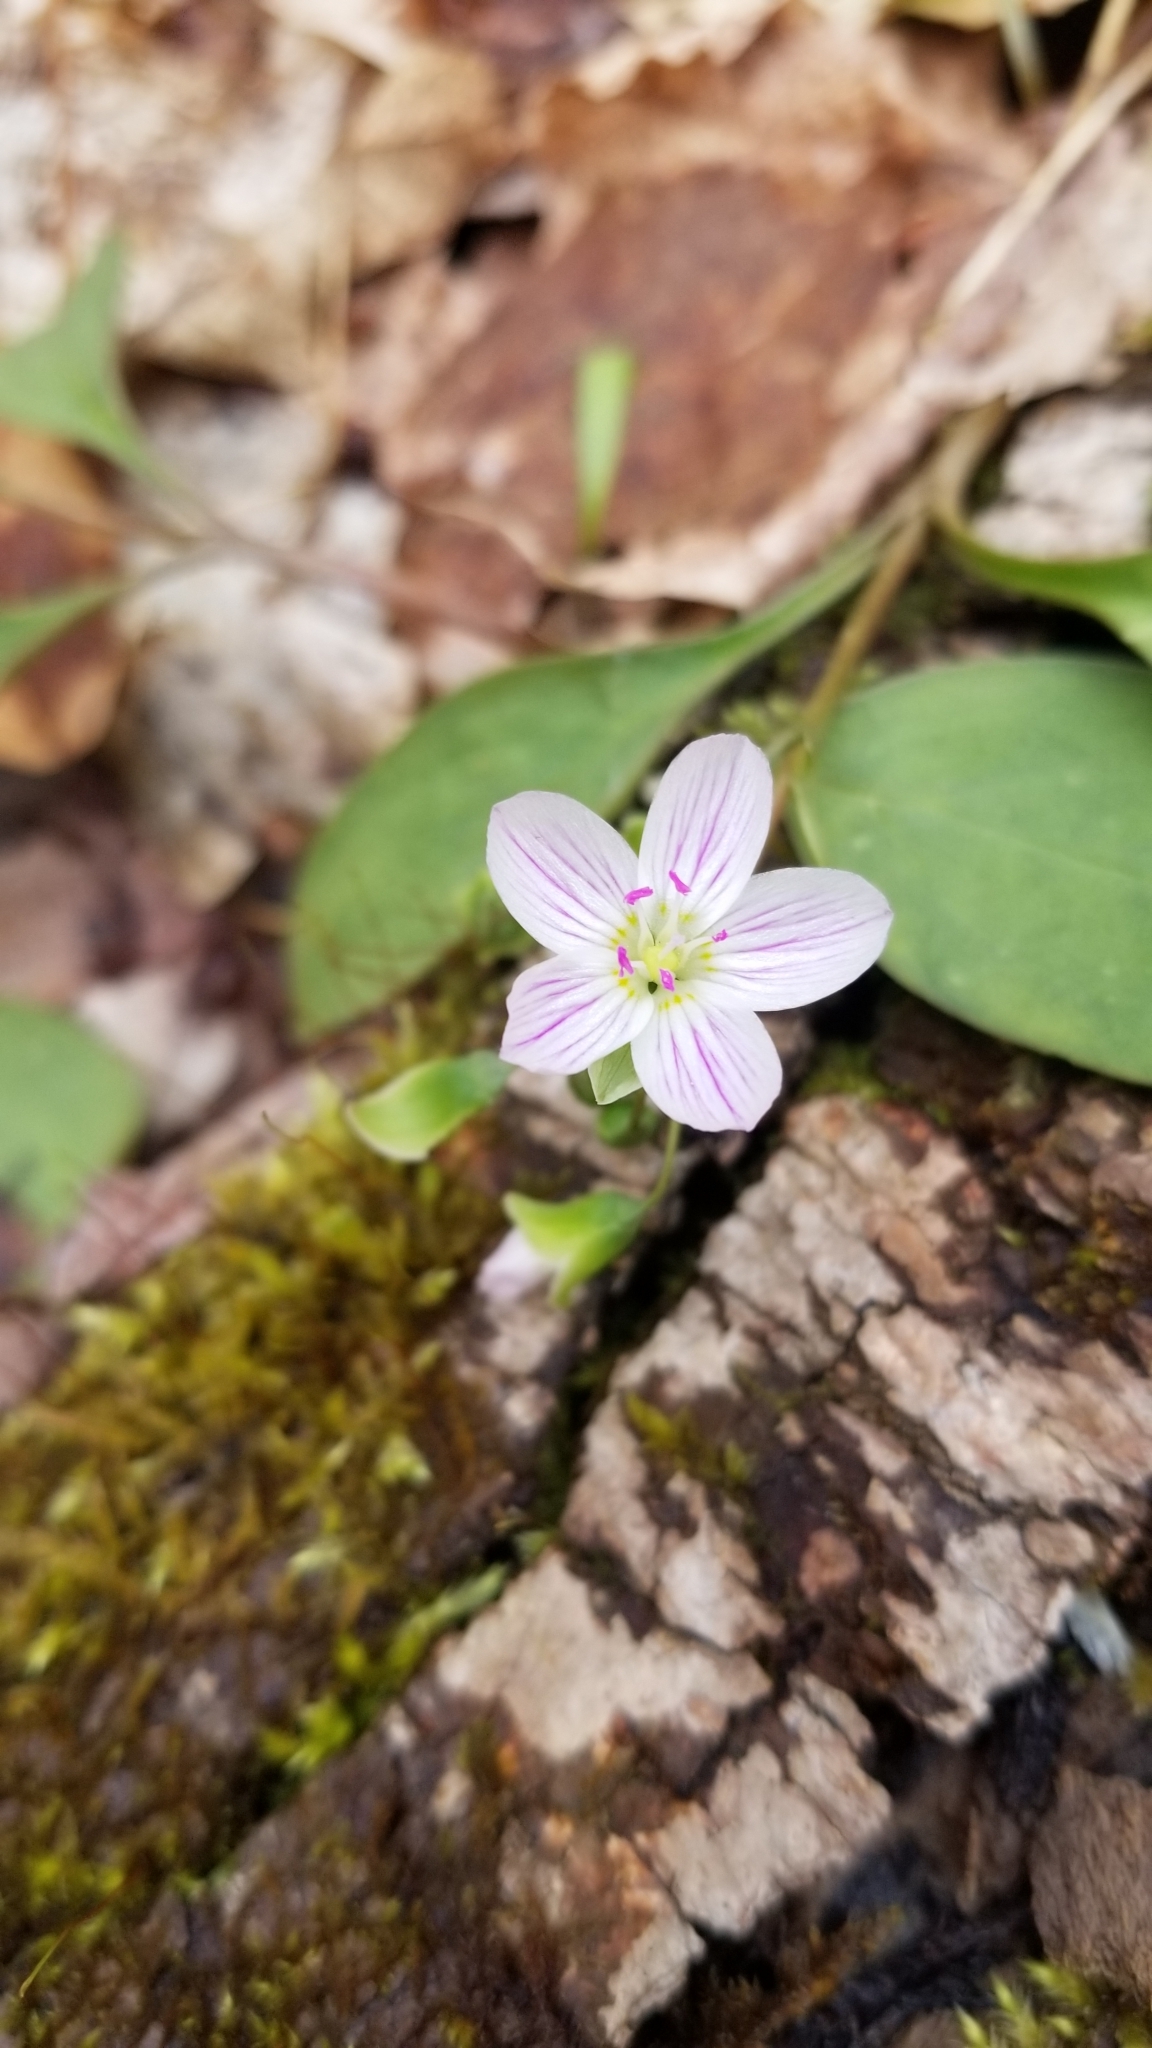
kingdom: Plantae
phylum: Tracheophyta
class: Magnoliopsida
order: Caryophyllales
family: Montiaceae
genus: Claytonia
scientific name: Claytonia caroliniana
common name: Carolina spring beauty
